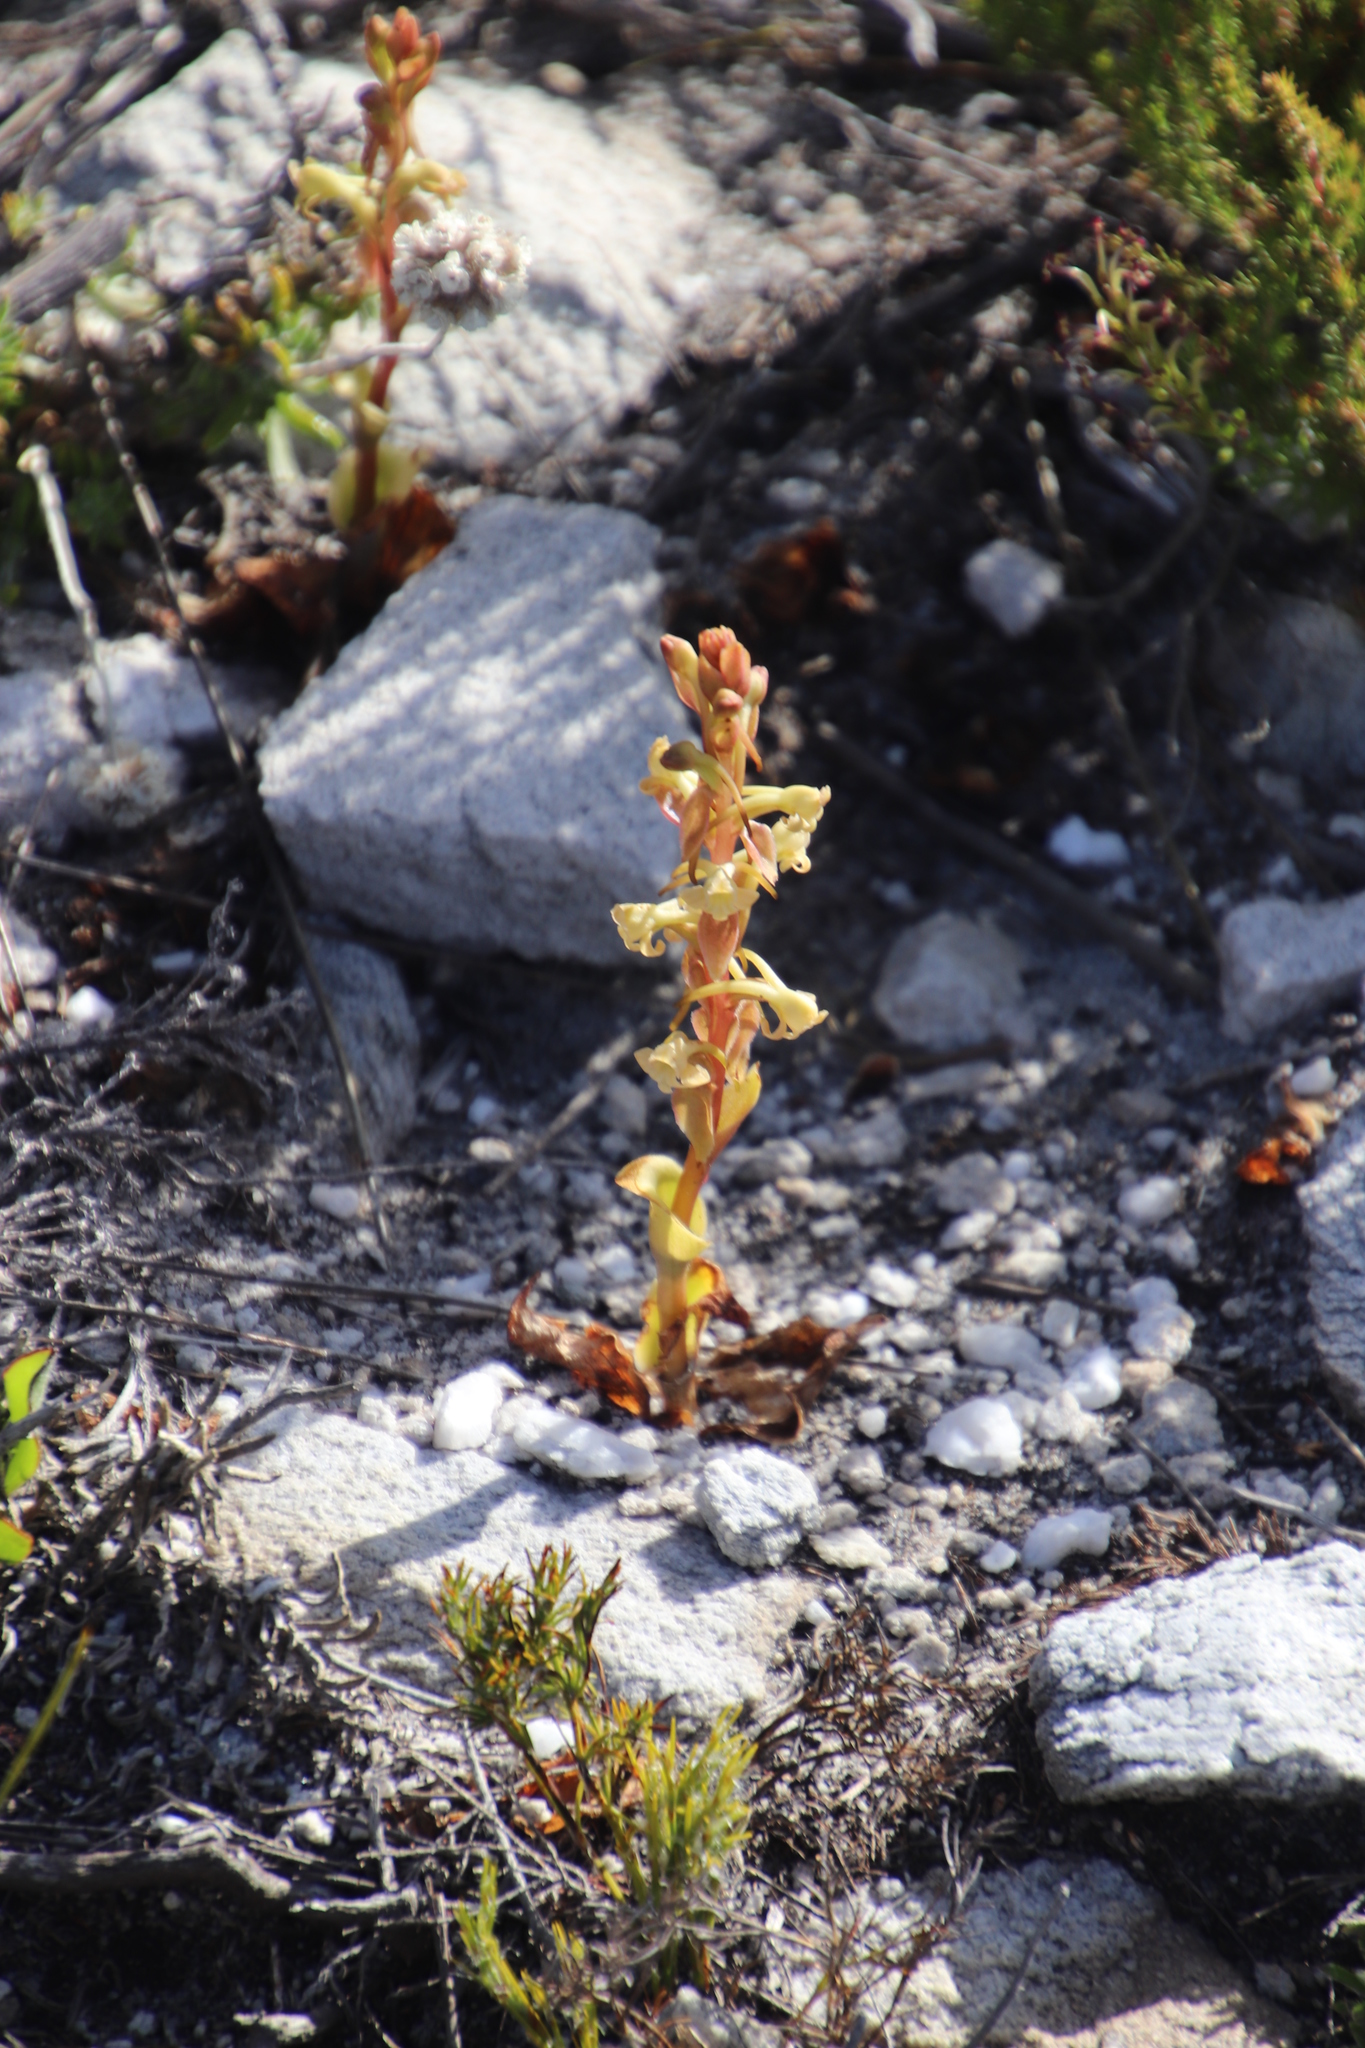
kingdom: Plantae
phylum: Tracheophyta
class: Liliopsida
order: Asparagales
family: Orchidaceae
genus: Satyrium
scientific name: Satyrium humile
